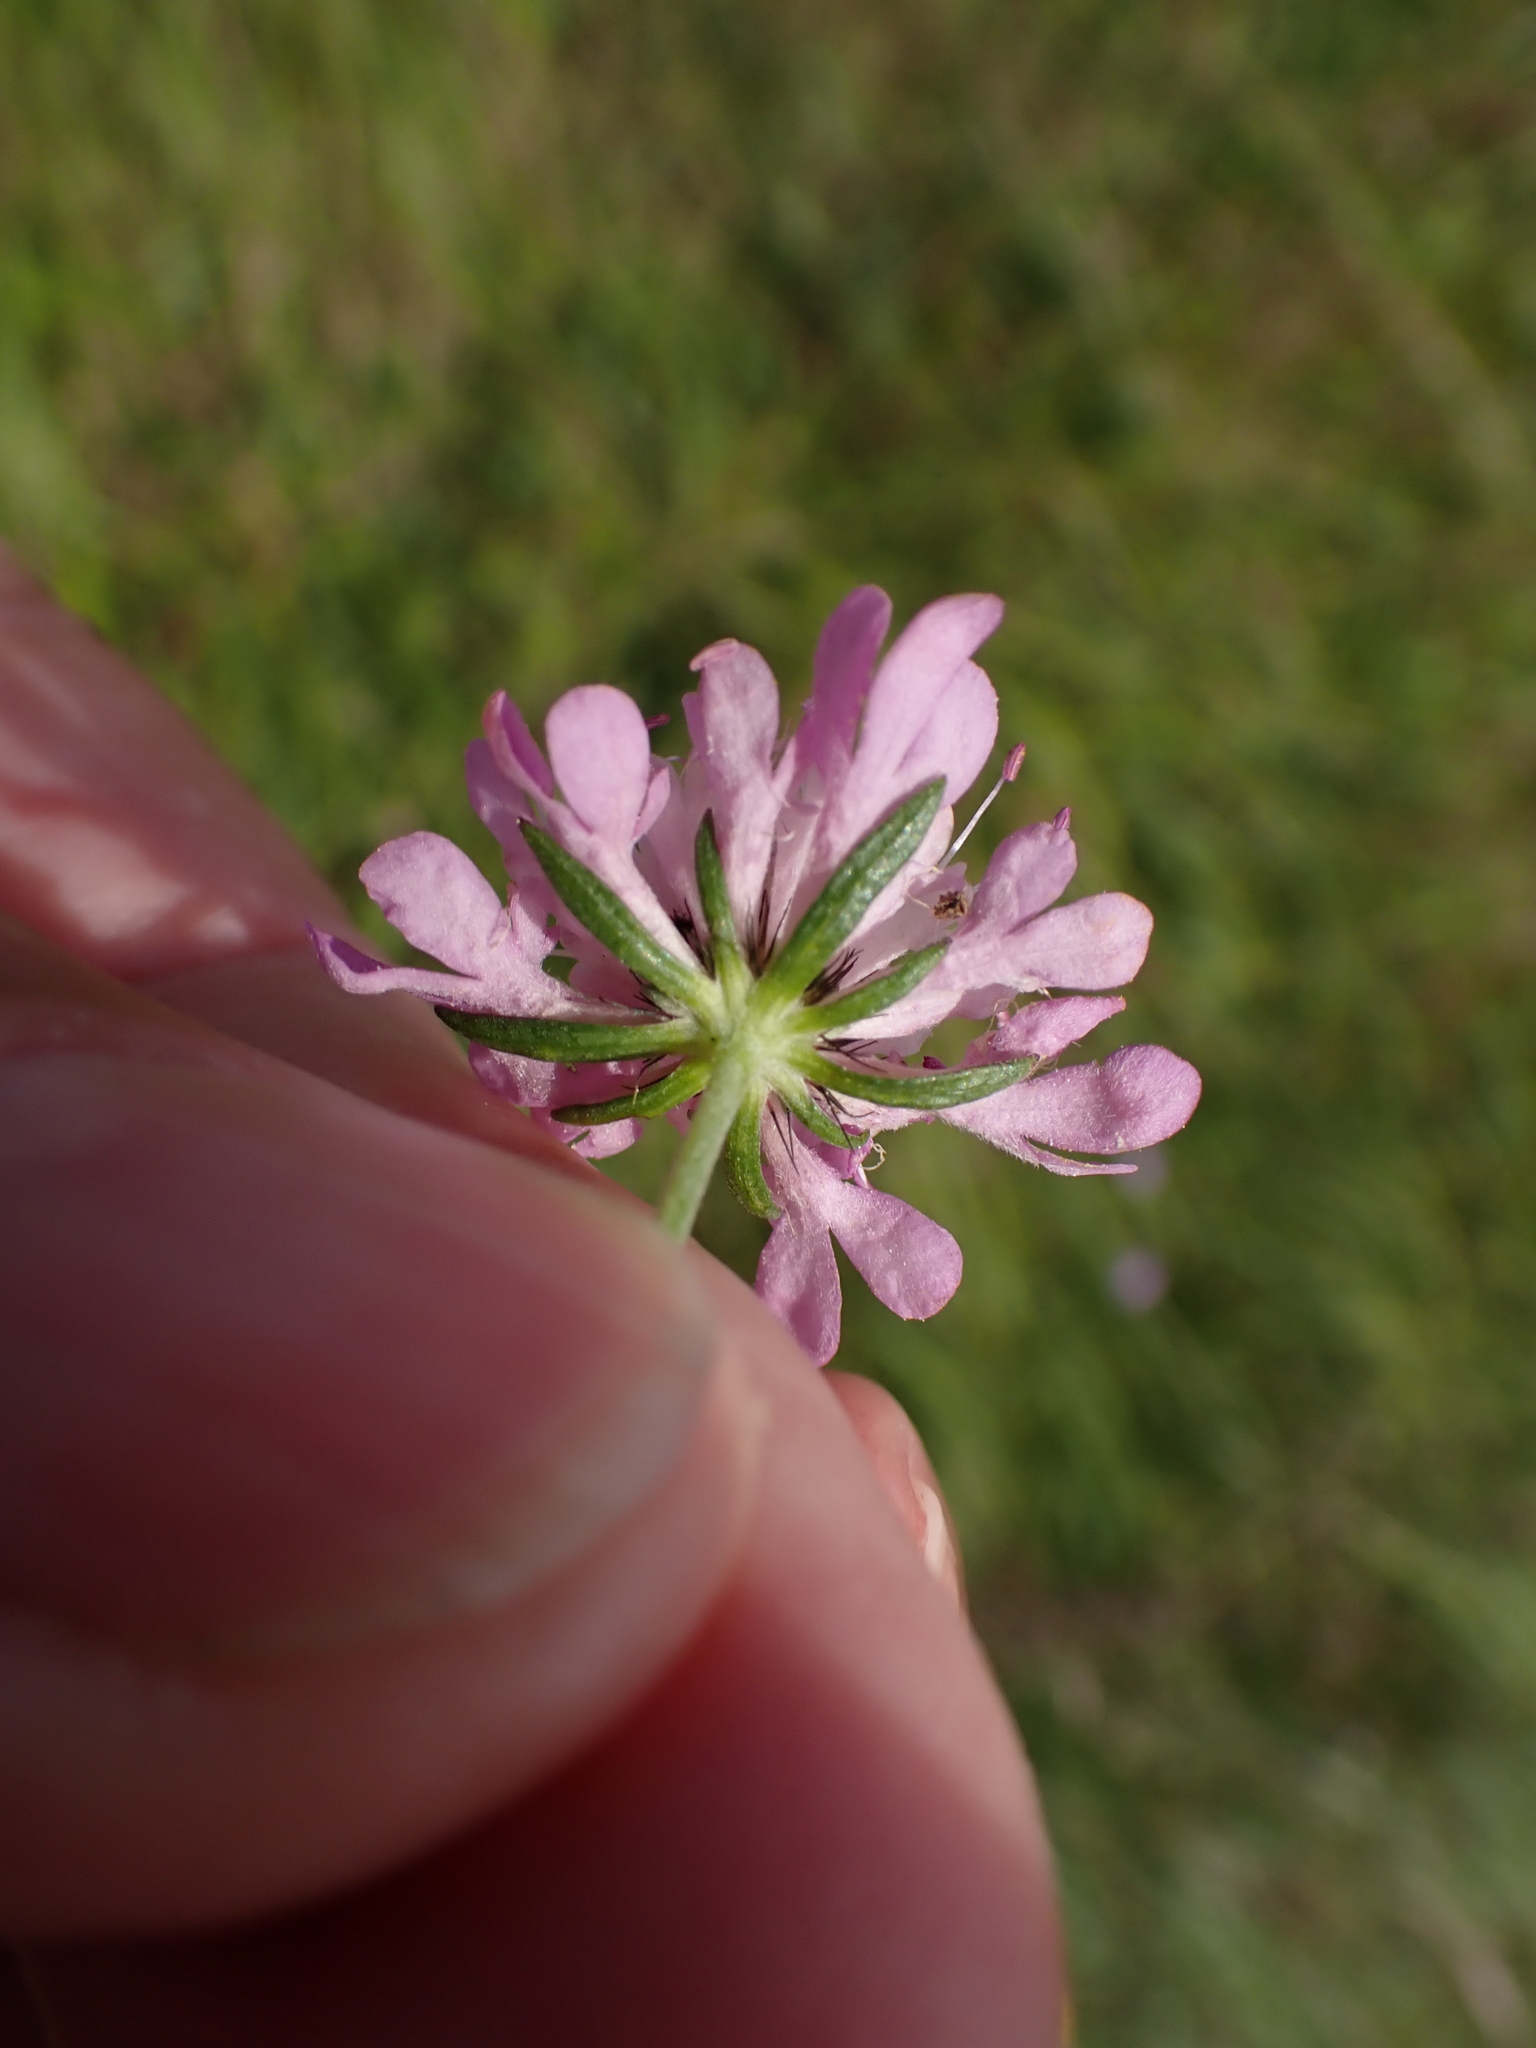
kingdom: Plantae
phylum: Tracheophyta
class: Magnoliopsida
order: Dipsacales
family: Caprifoliaceae
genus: Scabiosa
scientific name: Scabiosa columbaria
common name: Small scabious
